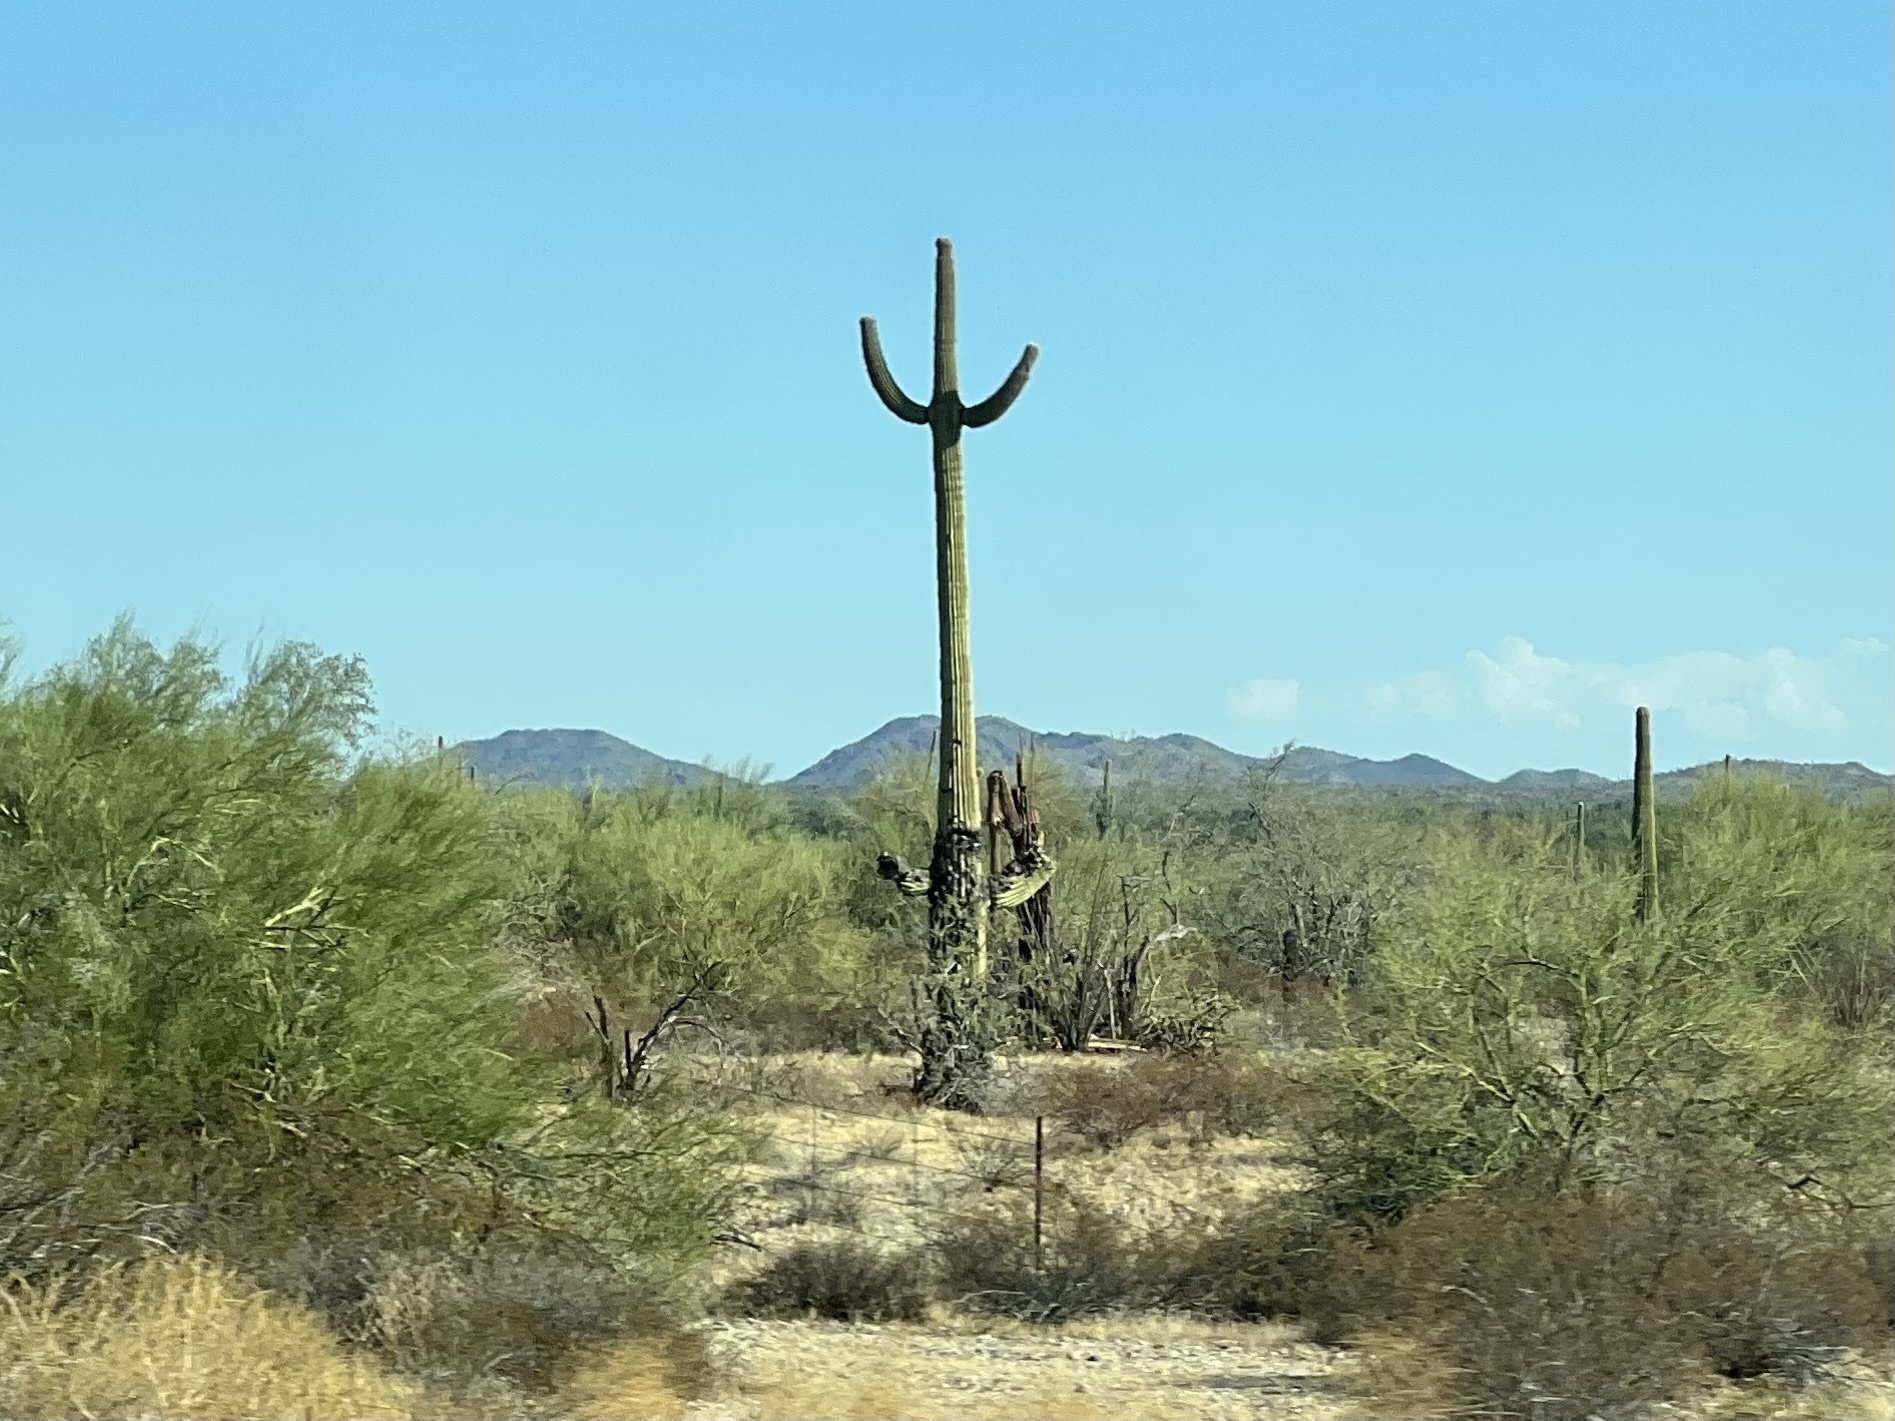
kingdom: Plantae
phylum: Tracheophyta
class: Magnoliopsida
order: Caryophyllales
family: Cactaceae
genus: Carnegiea
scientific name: Carnegiea gigantea
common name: Saguaro
